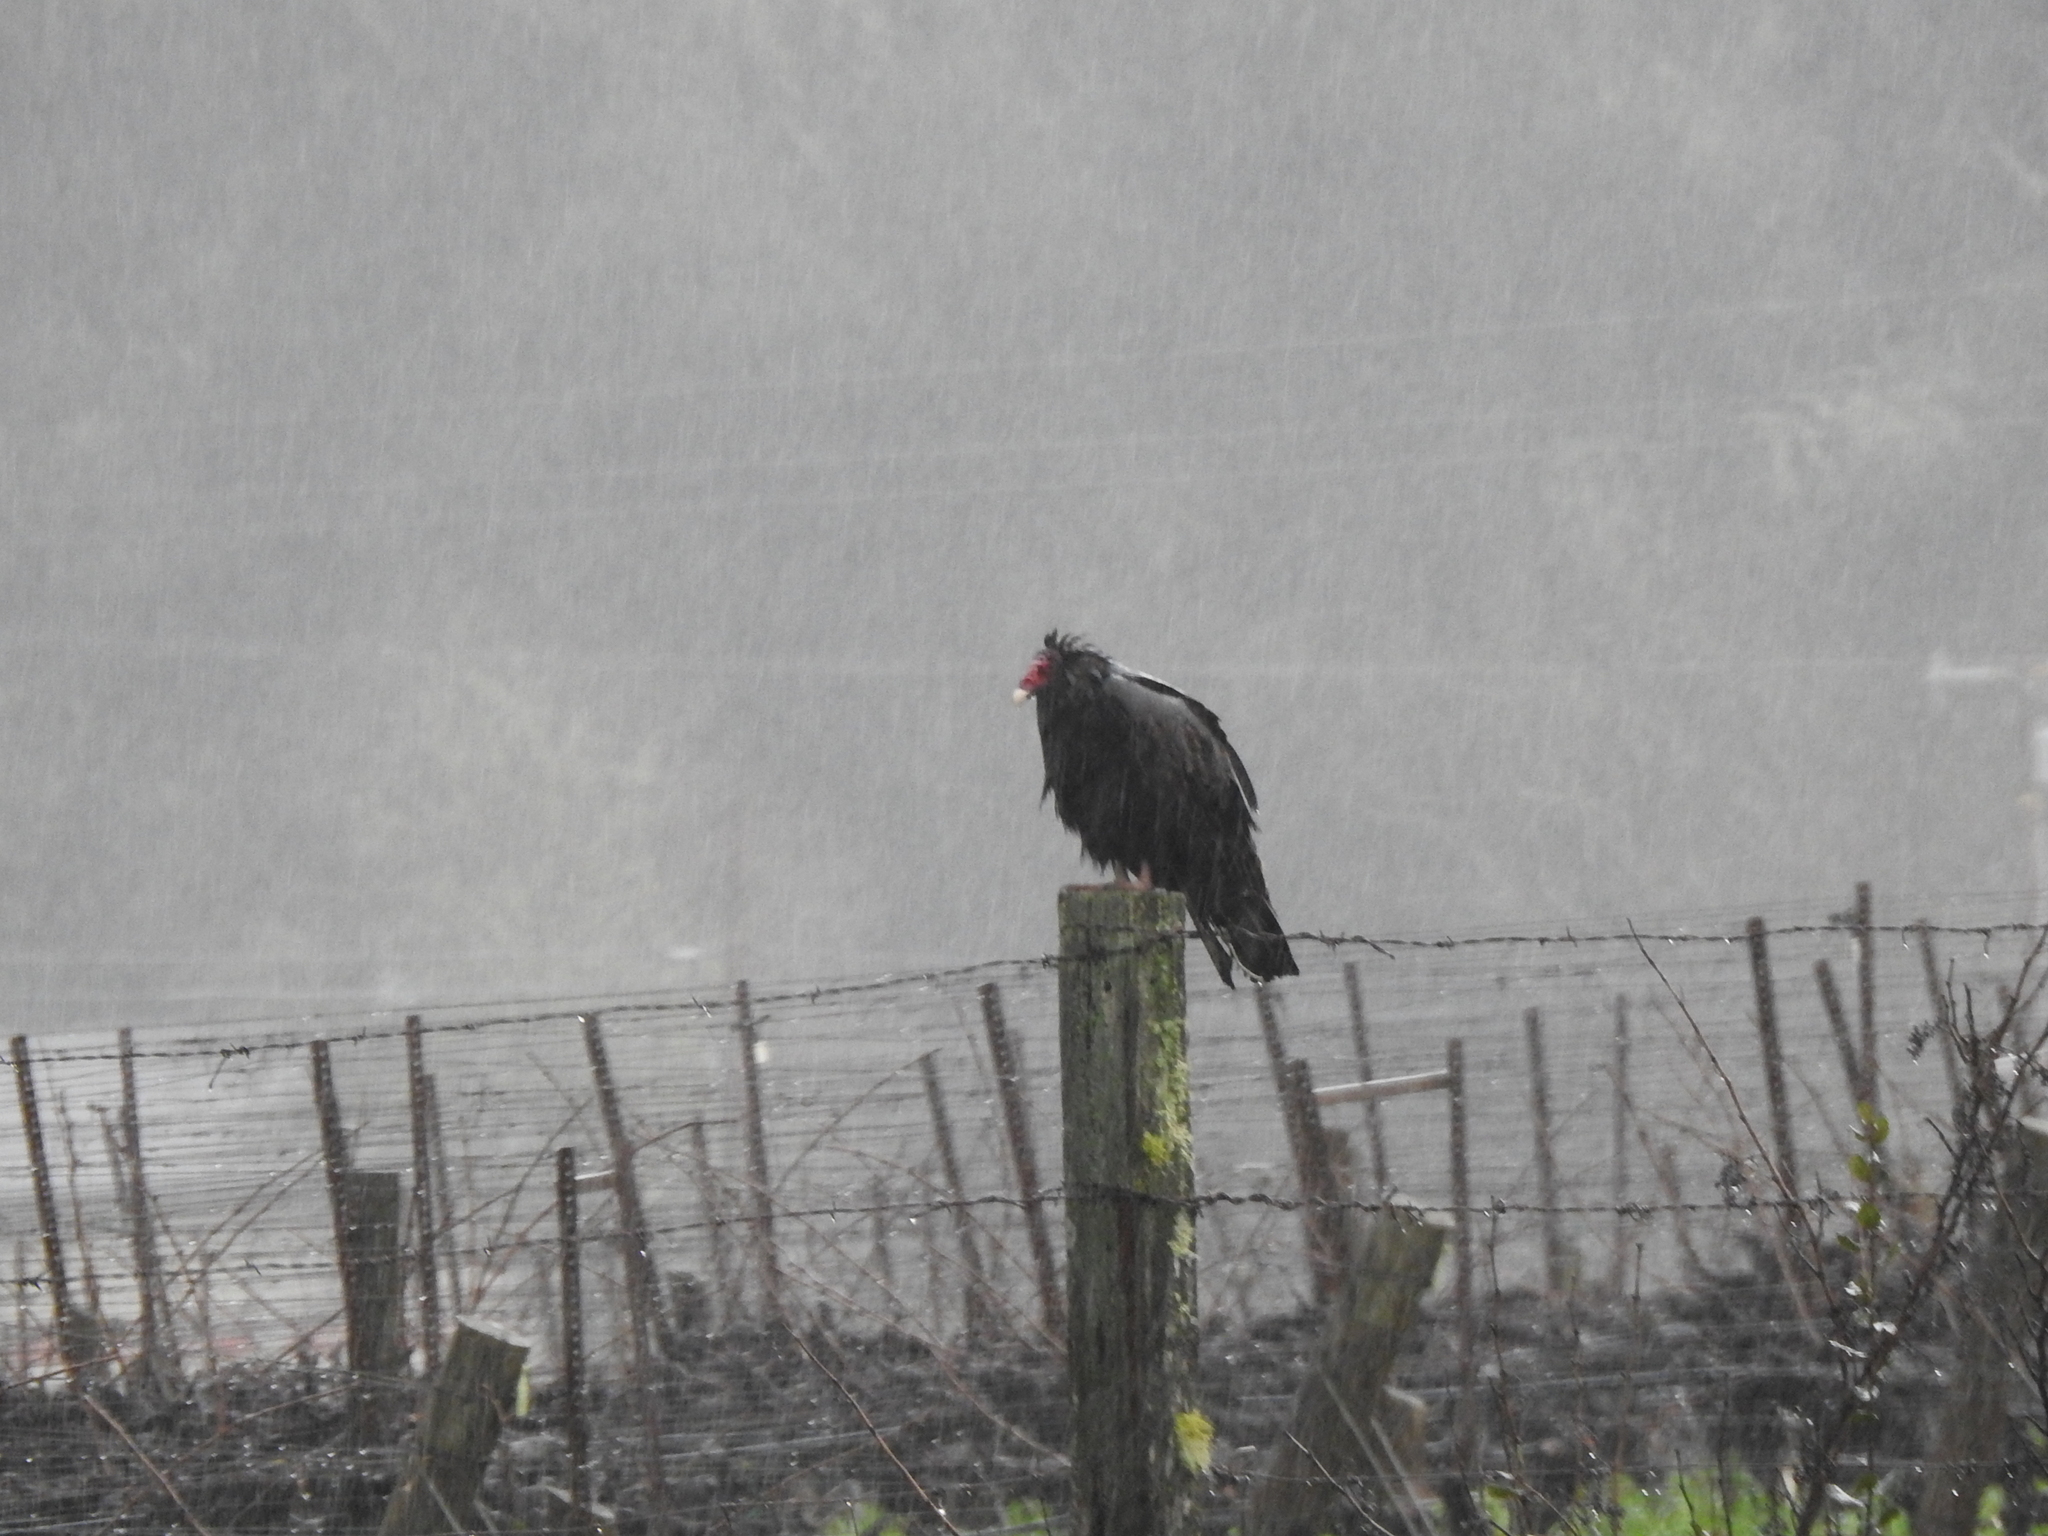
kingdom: Animalia
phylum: Chordata
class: Aves
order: Accipitriformes
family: Cathartidae
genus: Cathartes
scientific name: Cathartes aura
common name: Turkey vulture
